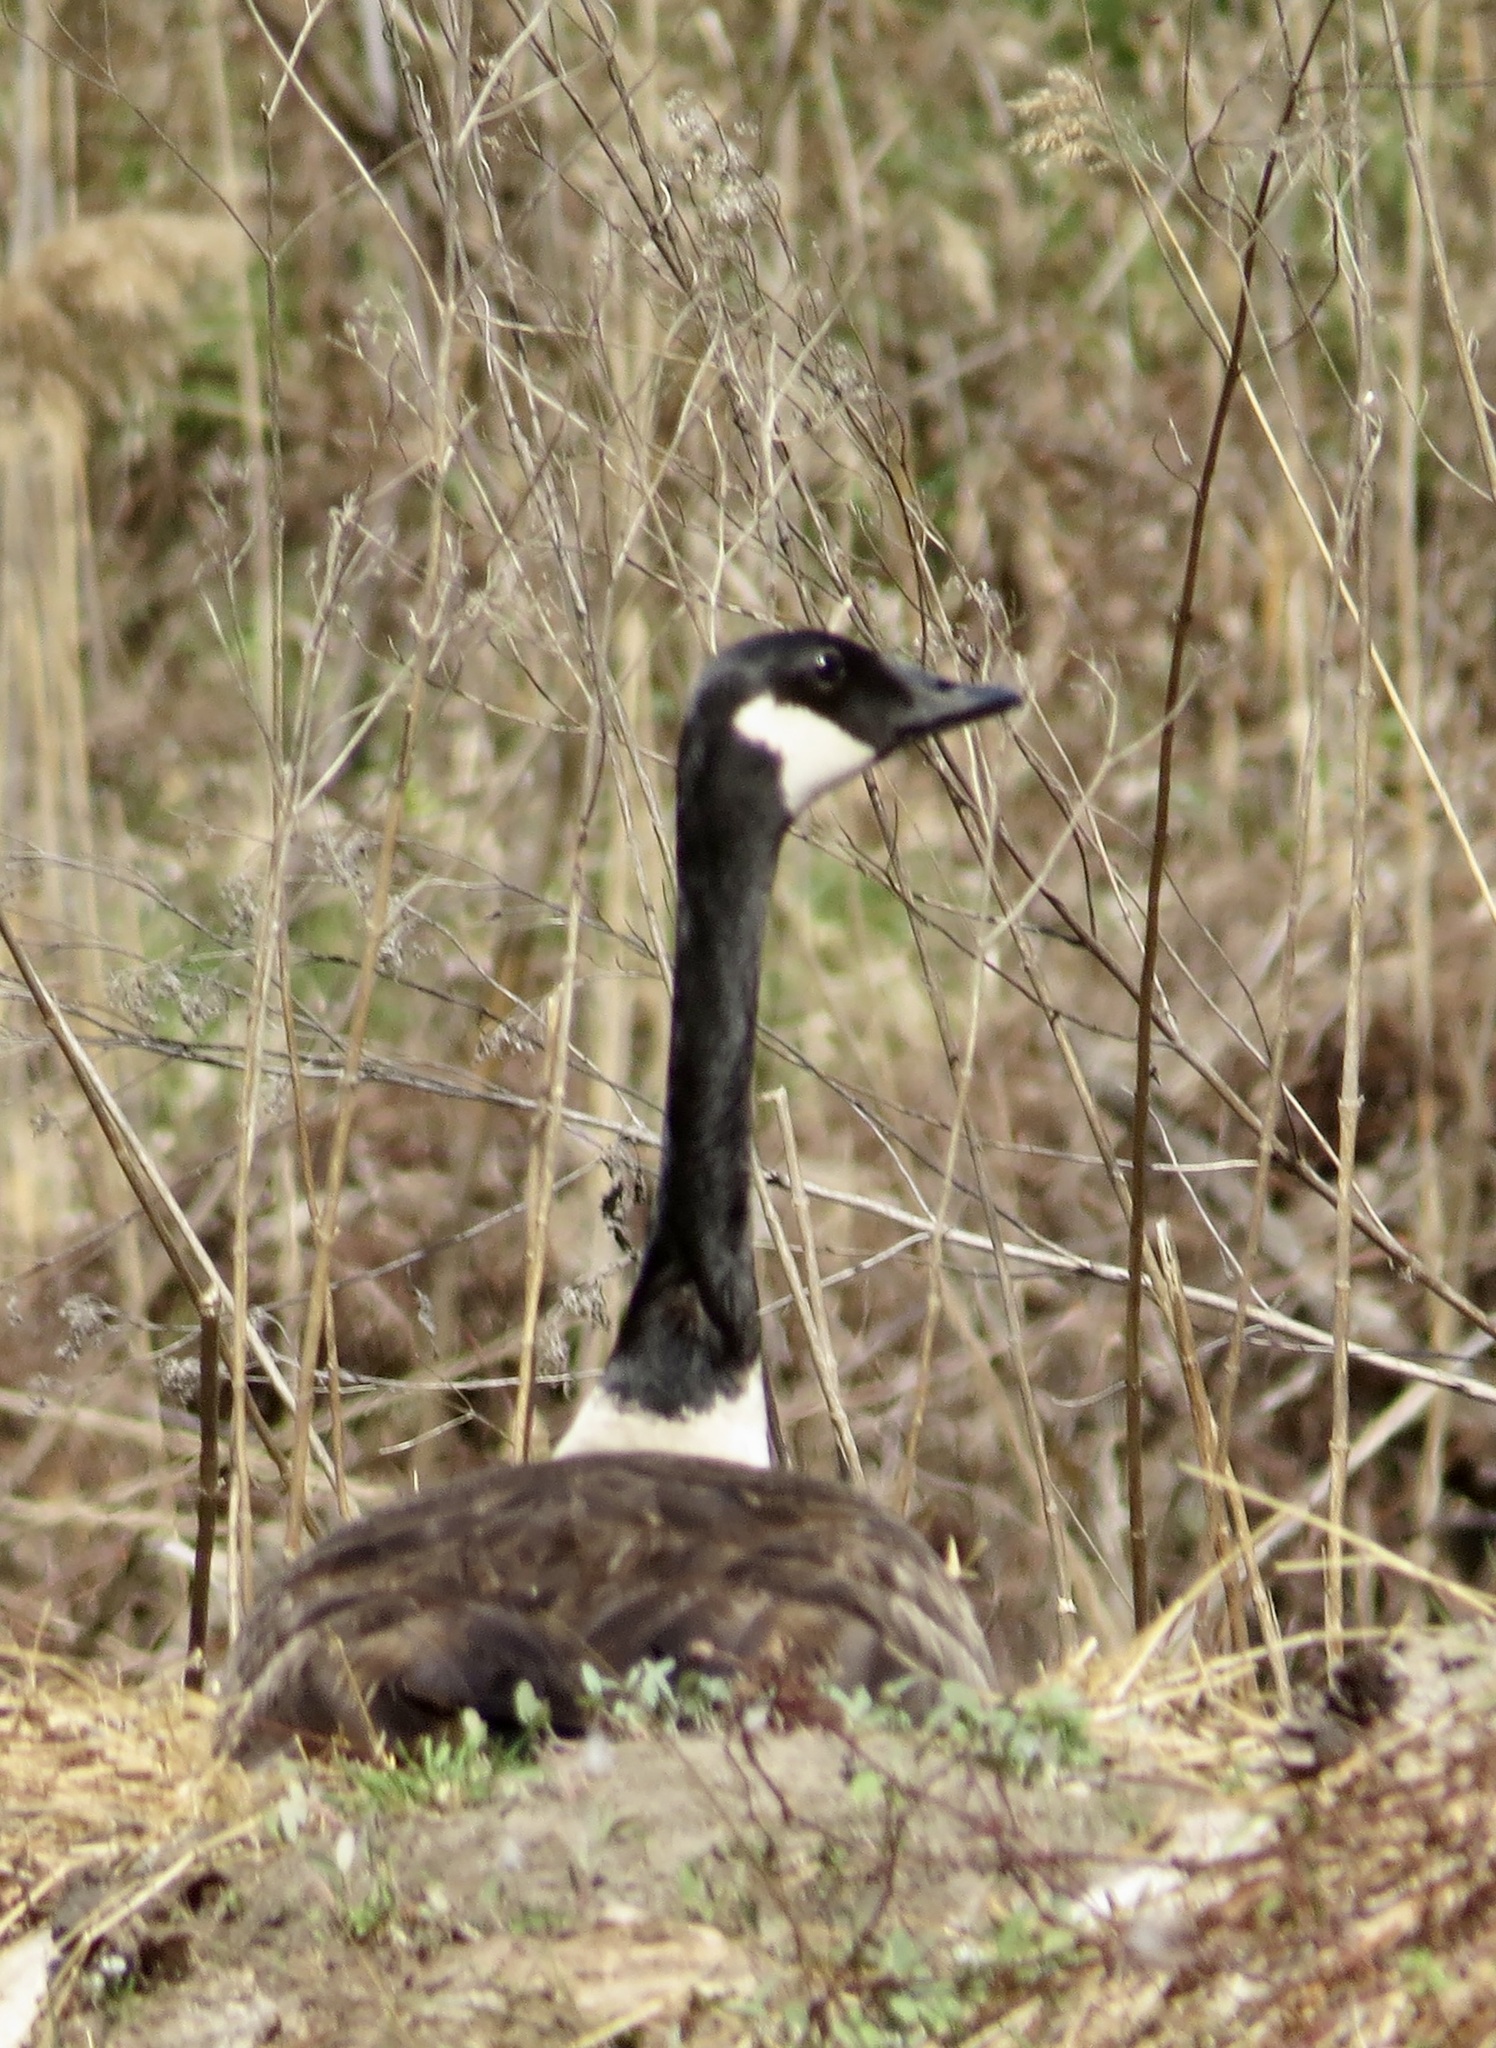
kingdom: Animalia
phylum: Chordata
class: Aves
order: Anseriformes
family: Anatidae
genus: Branta
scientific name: Branta canadensis
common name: Canada goose
